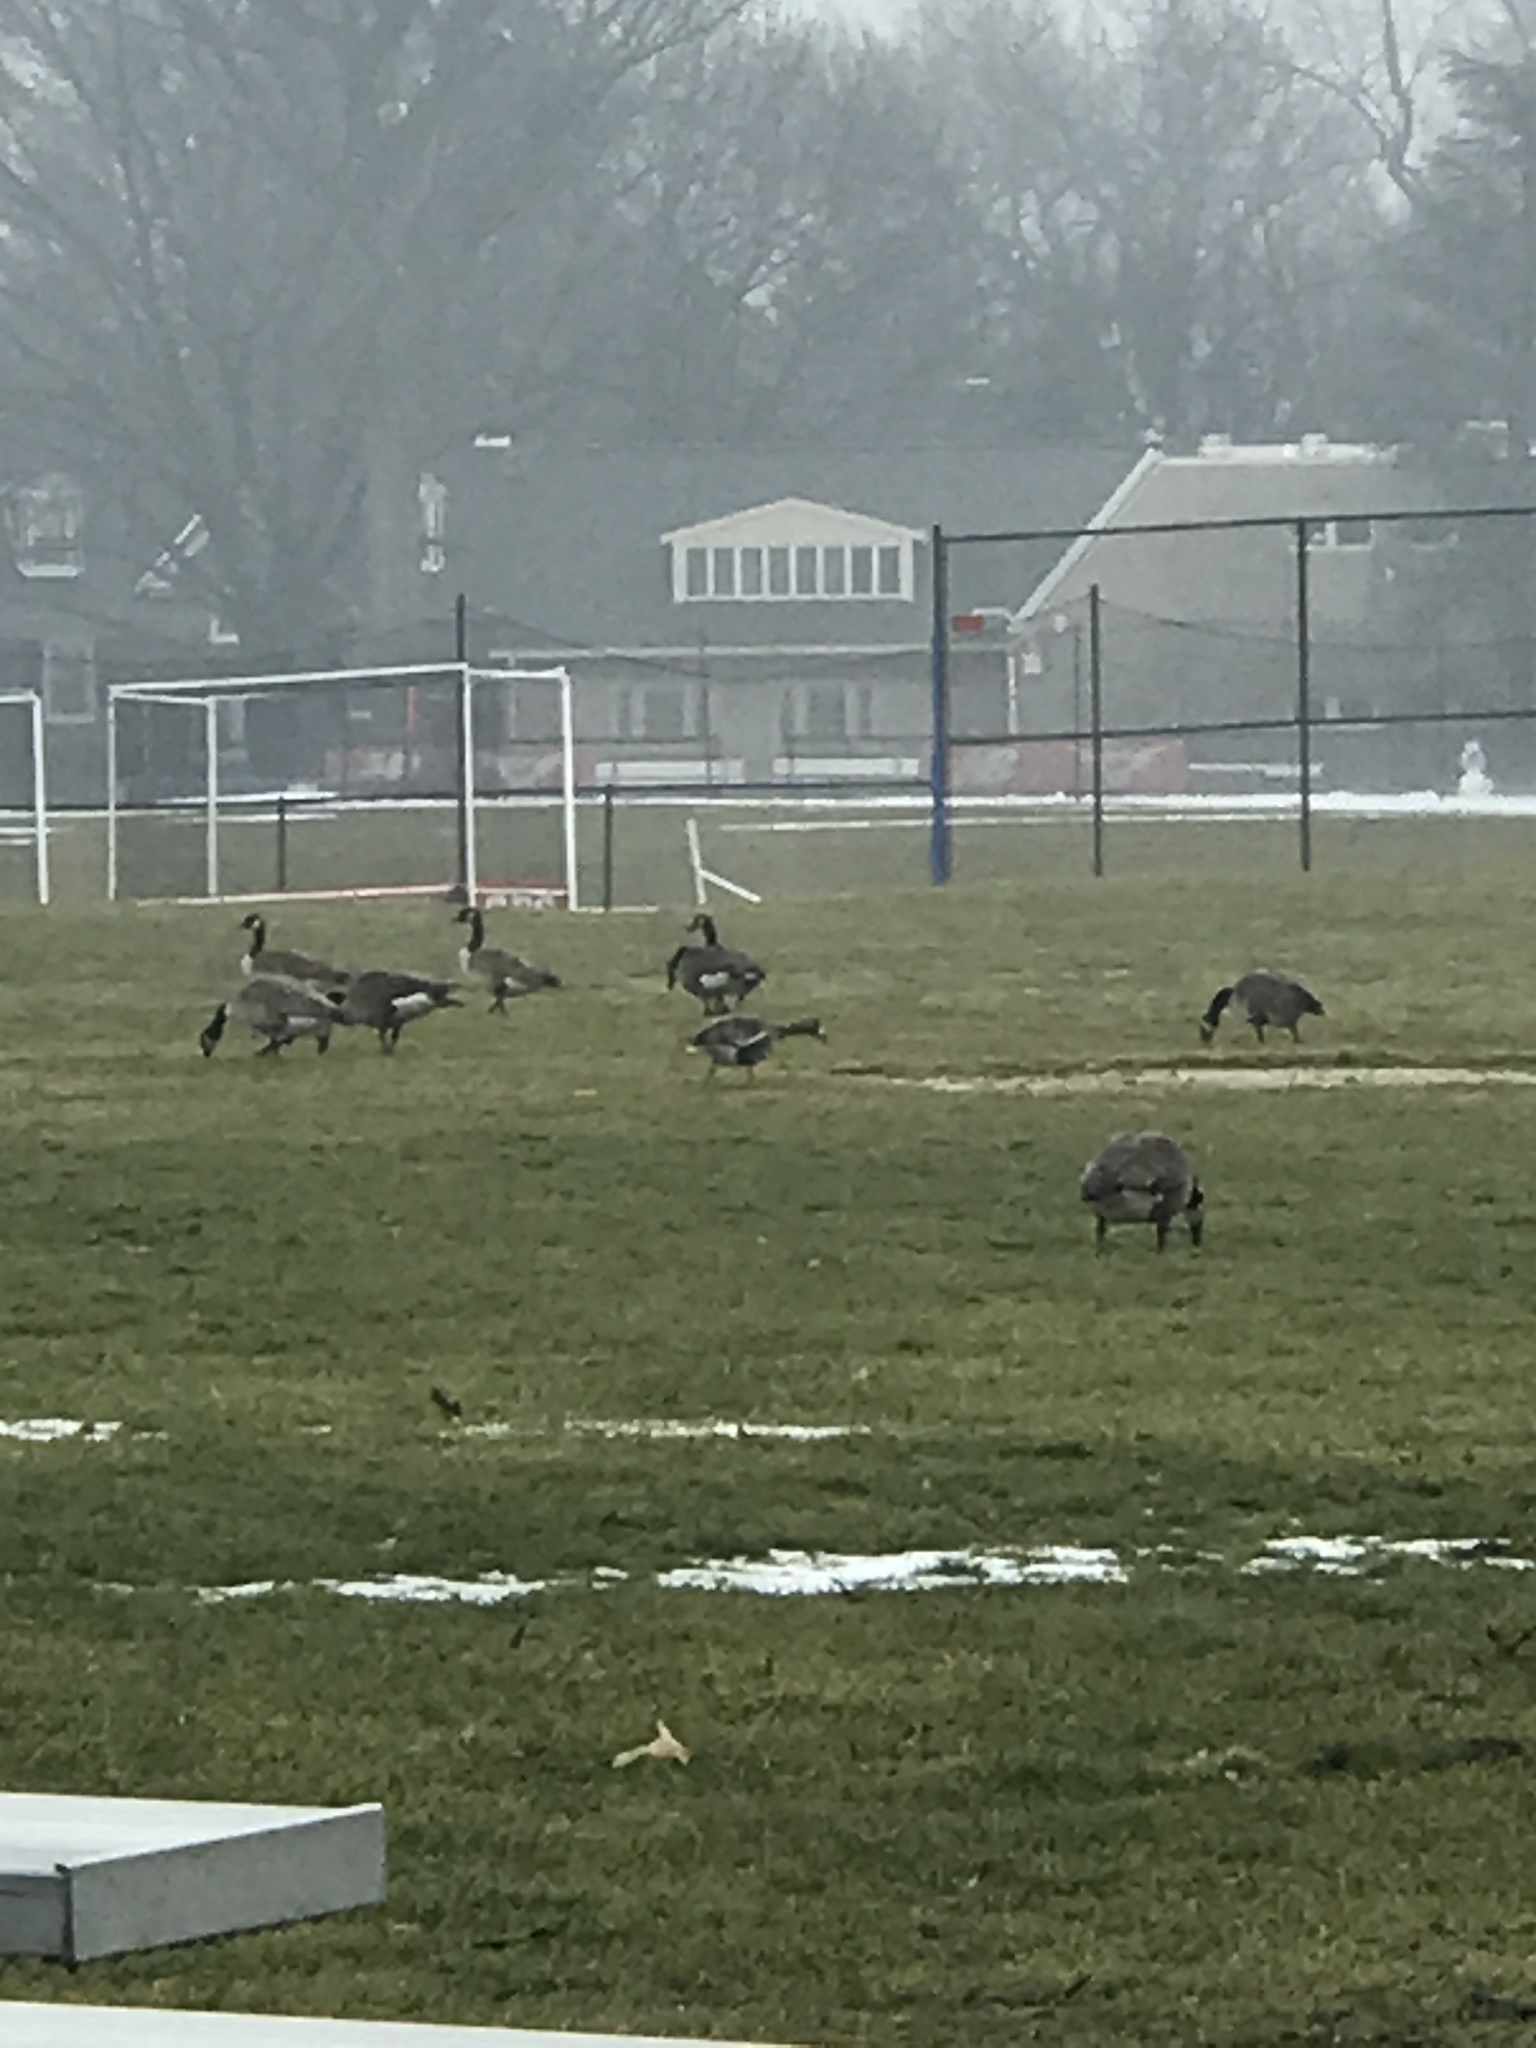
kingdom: Animalia
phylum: Chordata
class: Aves
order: Anseriformes
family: Anatidae
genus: Anser
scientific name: Anser albifrons
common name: Greater white-fronted goose
